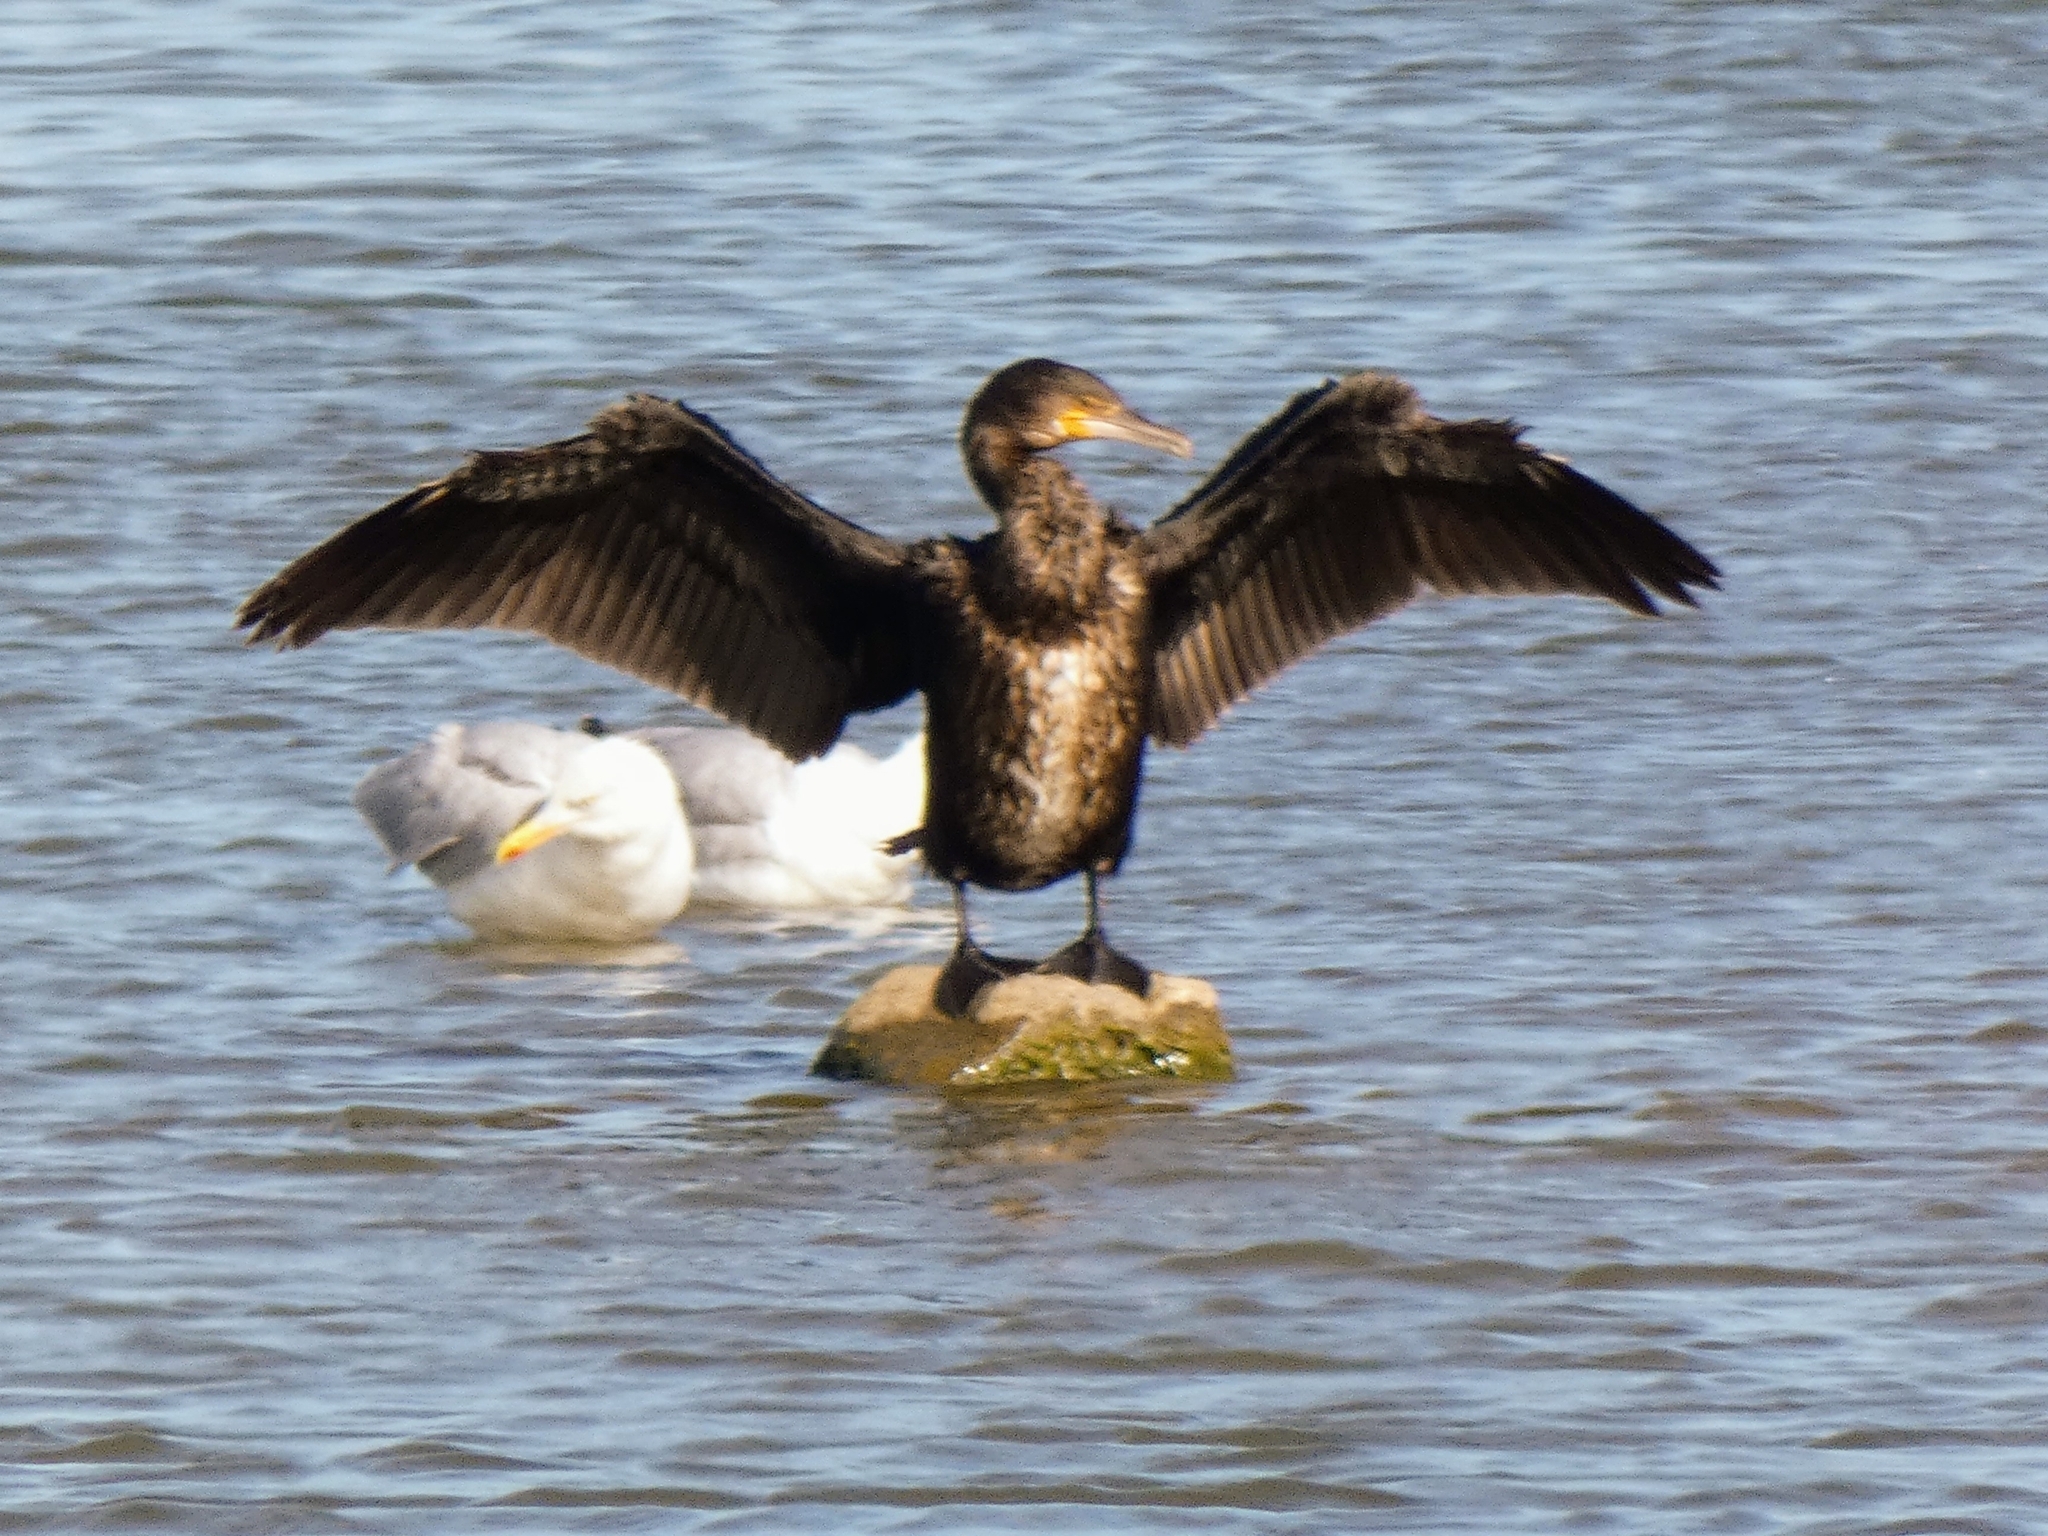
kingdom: Animalia
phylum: Chordata
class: Aves
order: Suliformes
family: Phalacrocoracidae
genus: Phalacrocorax
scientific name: Phalacrocorax carbo
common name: Great cormorant
